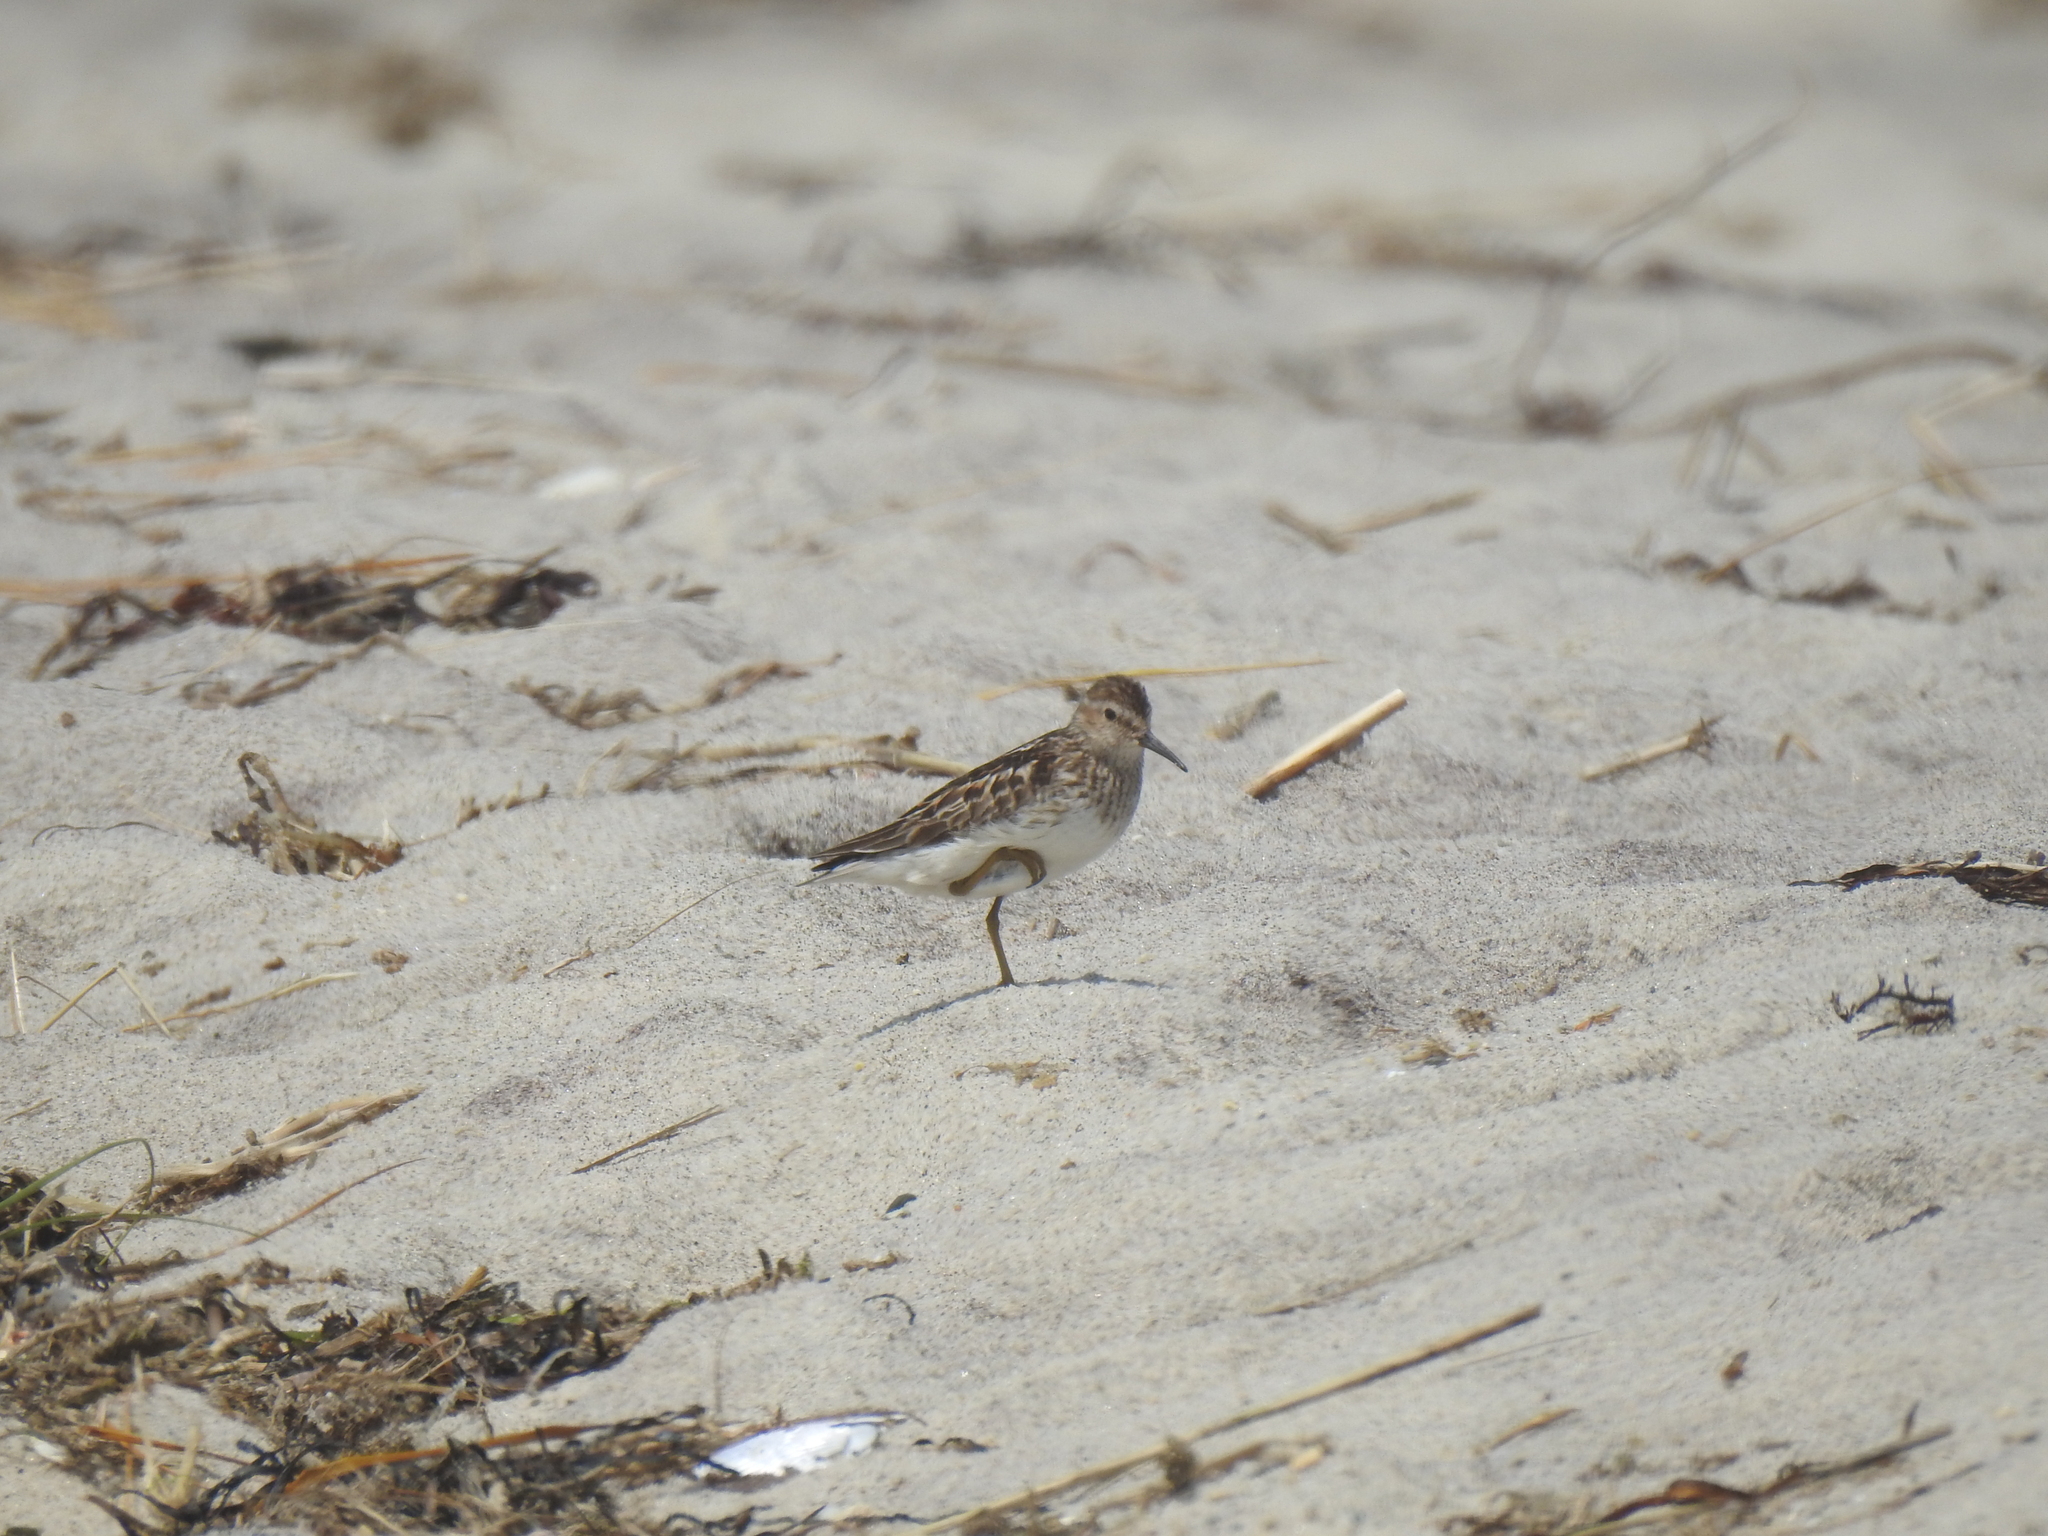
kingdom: Animalia
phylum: Chordata
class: Aves
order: Charadriiformes
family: Scolopacidae
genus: Calidris
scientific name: Calidris minutilla
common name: Least sandpiper
